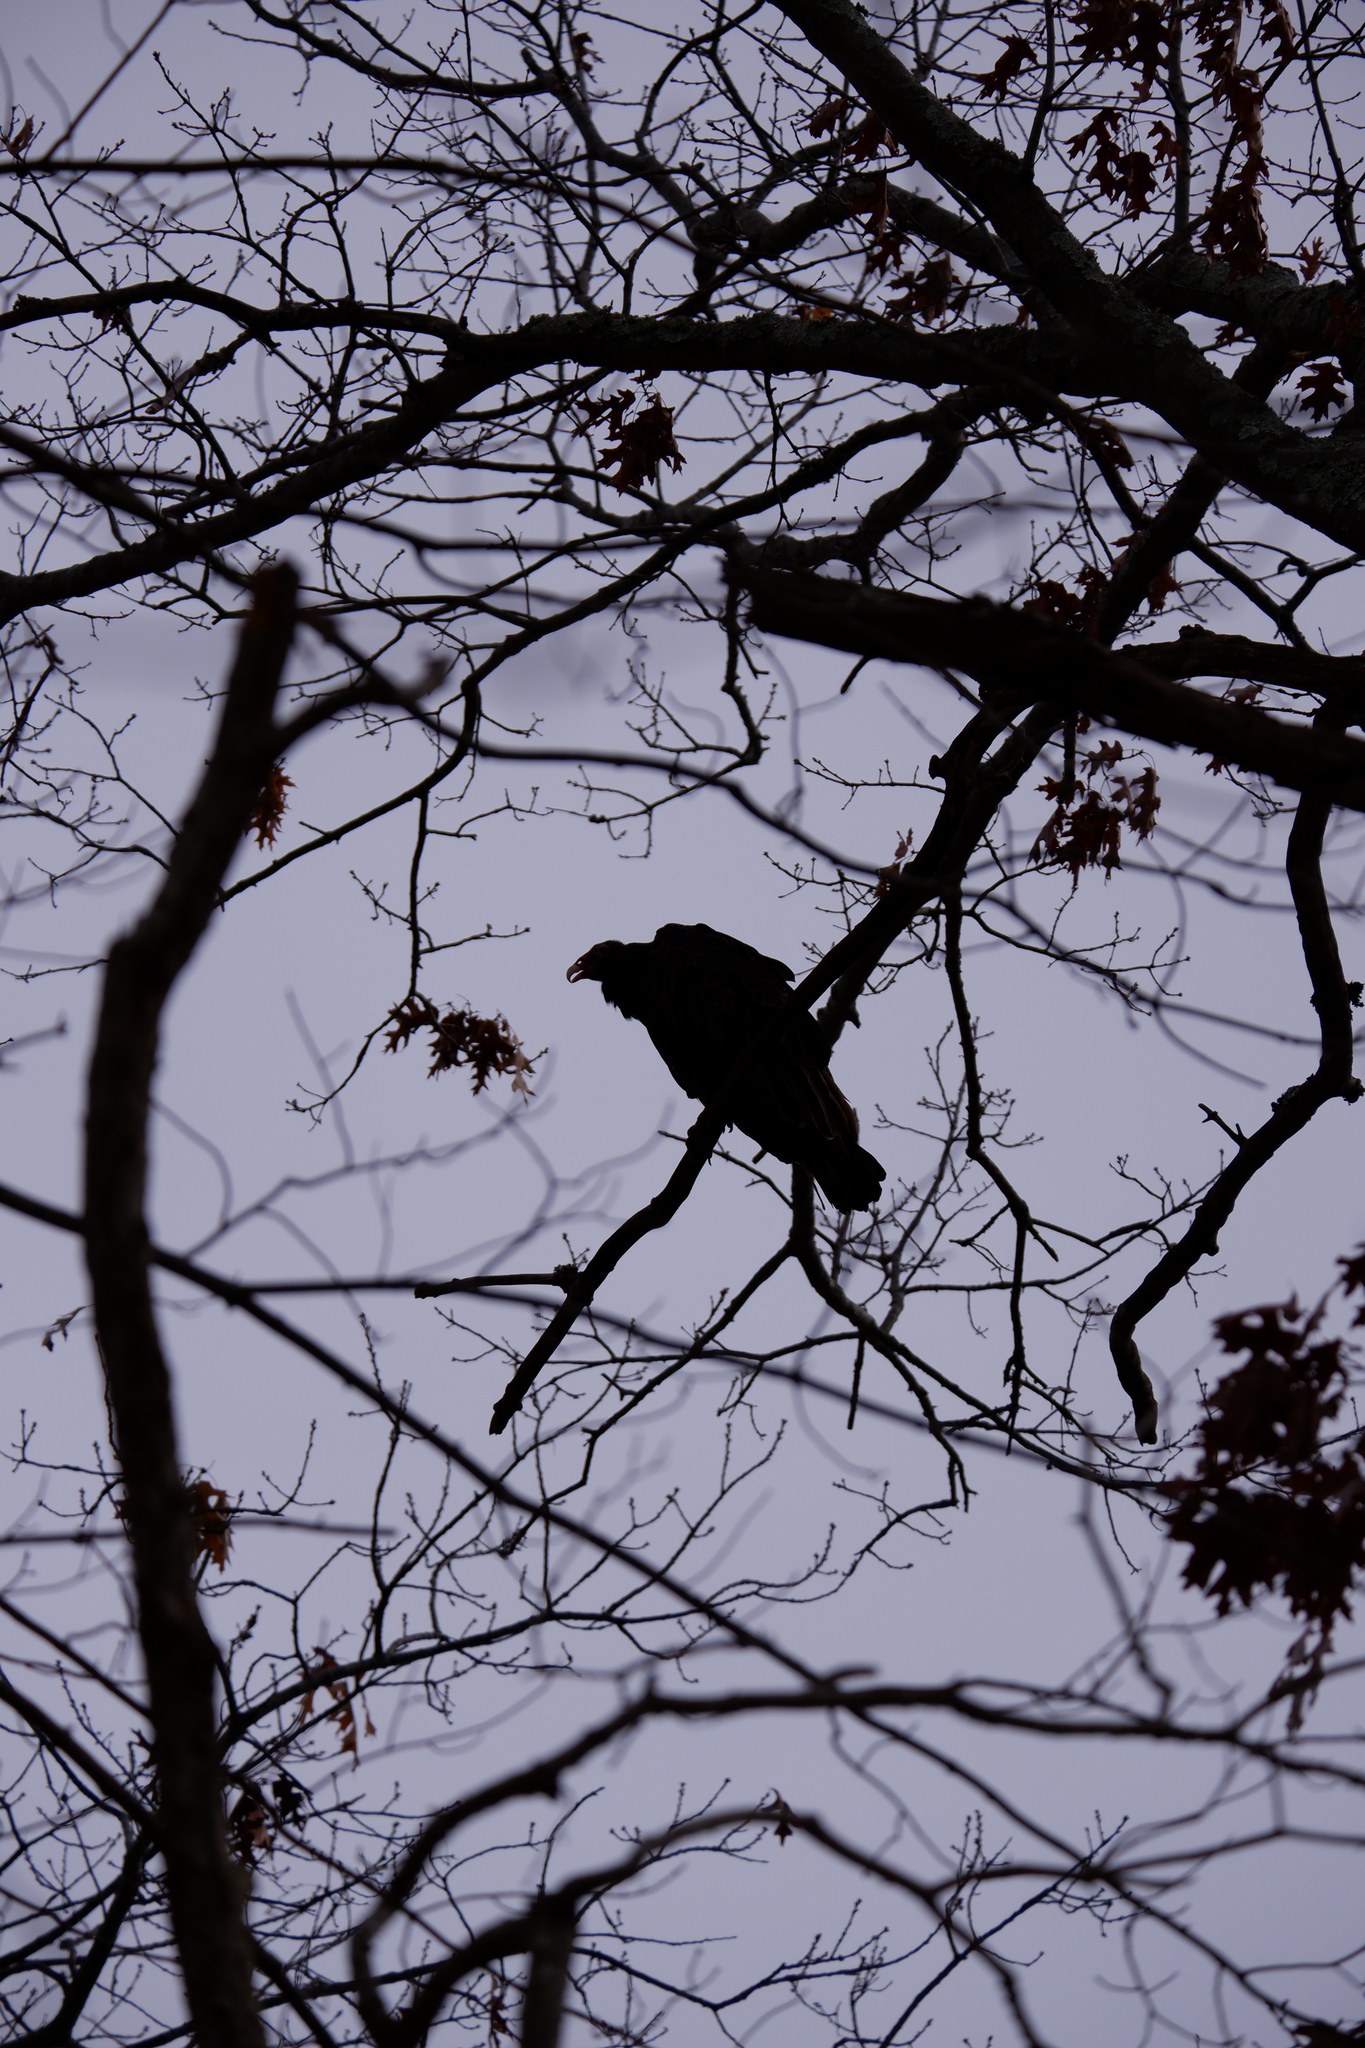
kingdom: Animalia
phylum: Chordata
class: Aves
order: Accipitriformes
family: Cathartidae
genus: Cathartes
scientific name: Cathartes aura
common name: Turkey vulture
